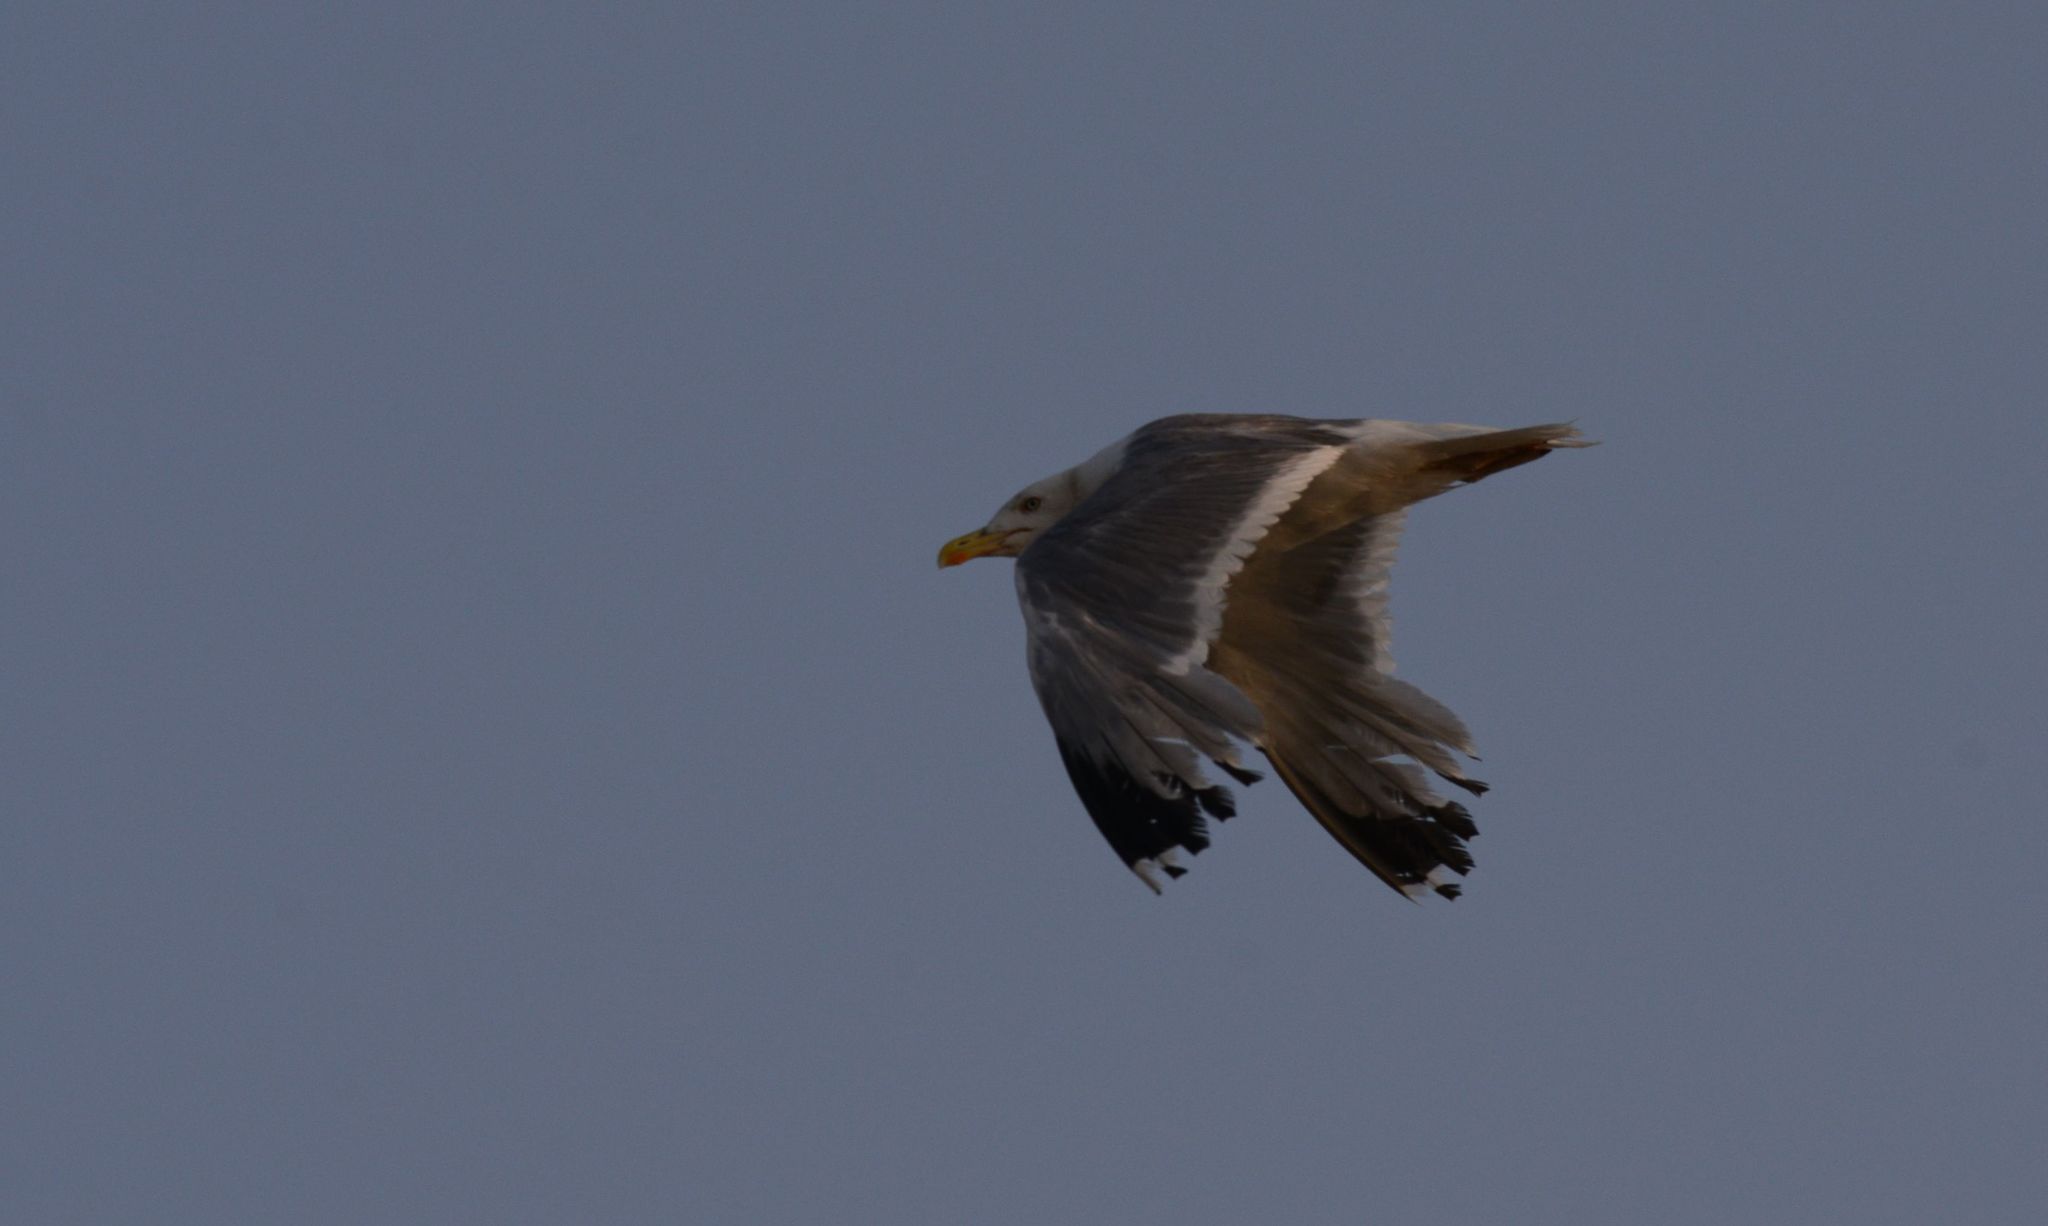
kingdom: Animalia
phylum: Chordata
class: Aves
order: Charadriiformes
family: Laridae
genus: Larus
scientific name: Larus michahellis
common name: Yellow-legged gull
